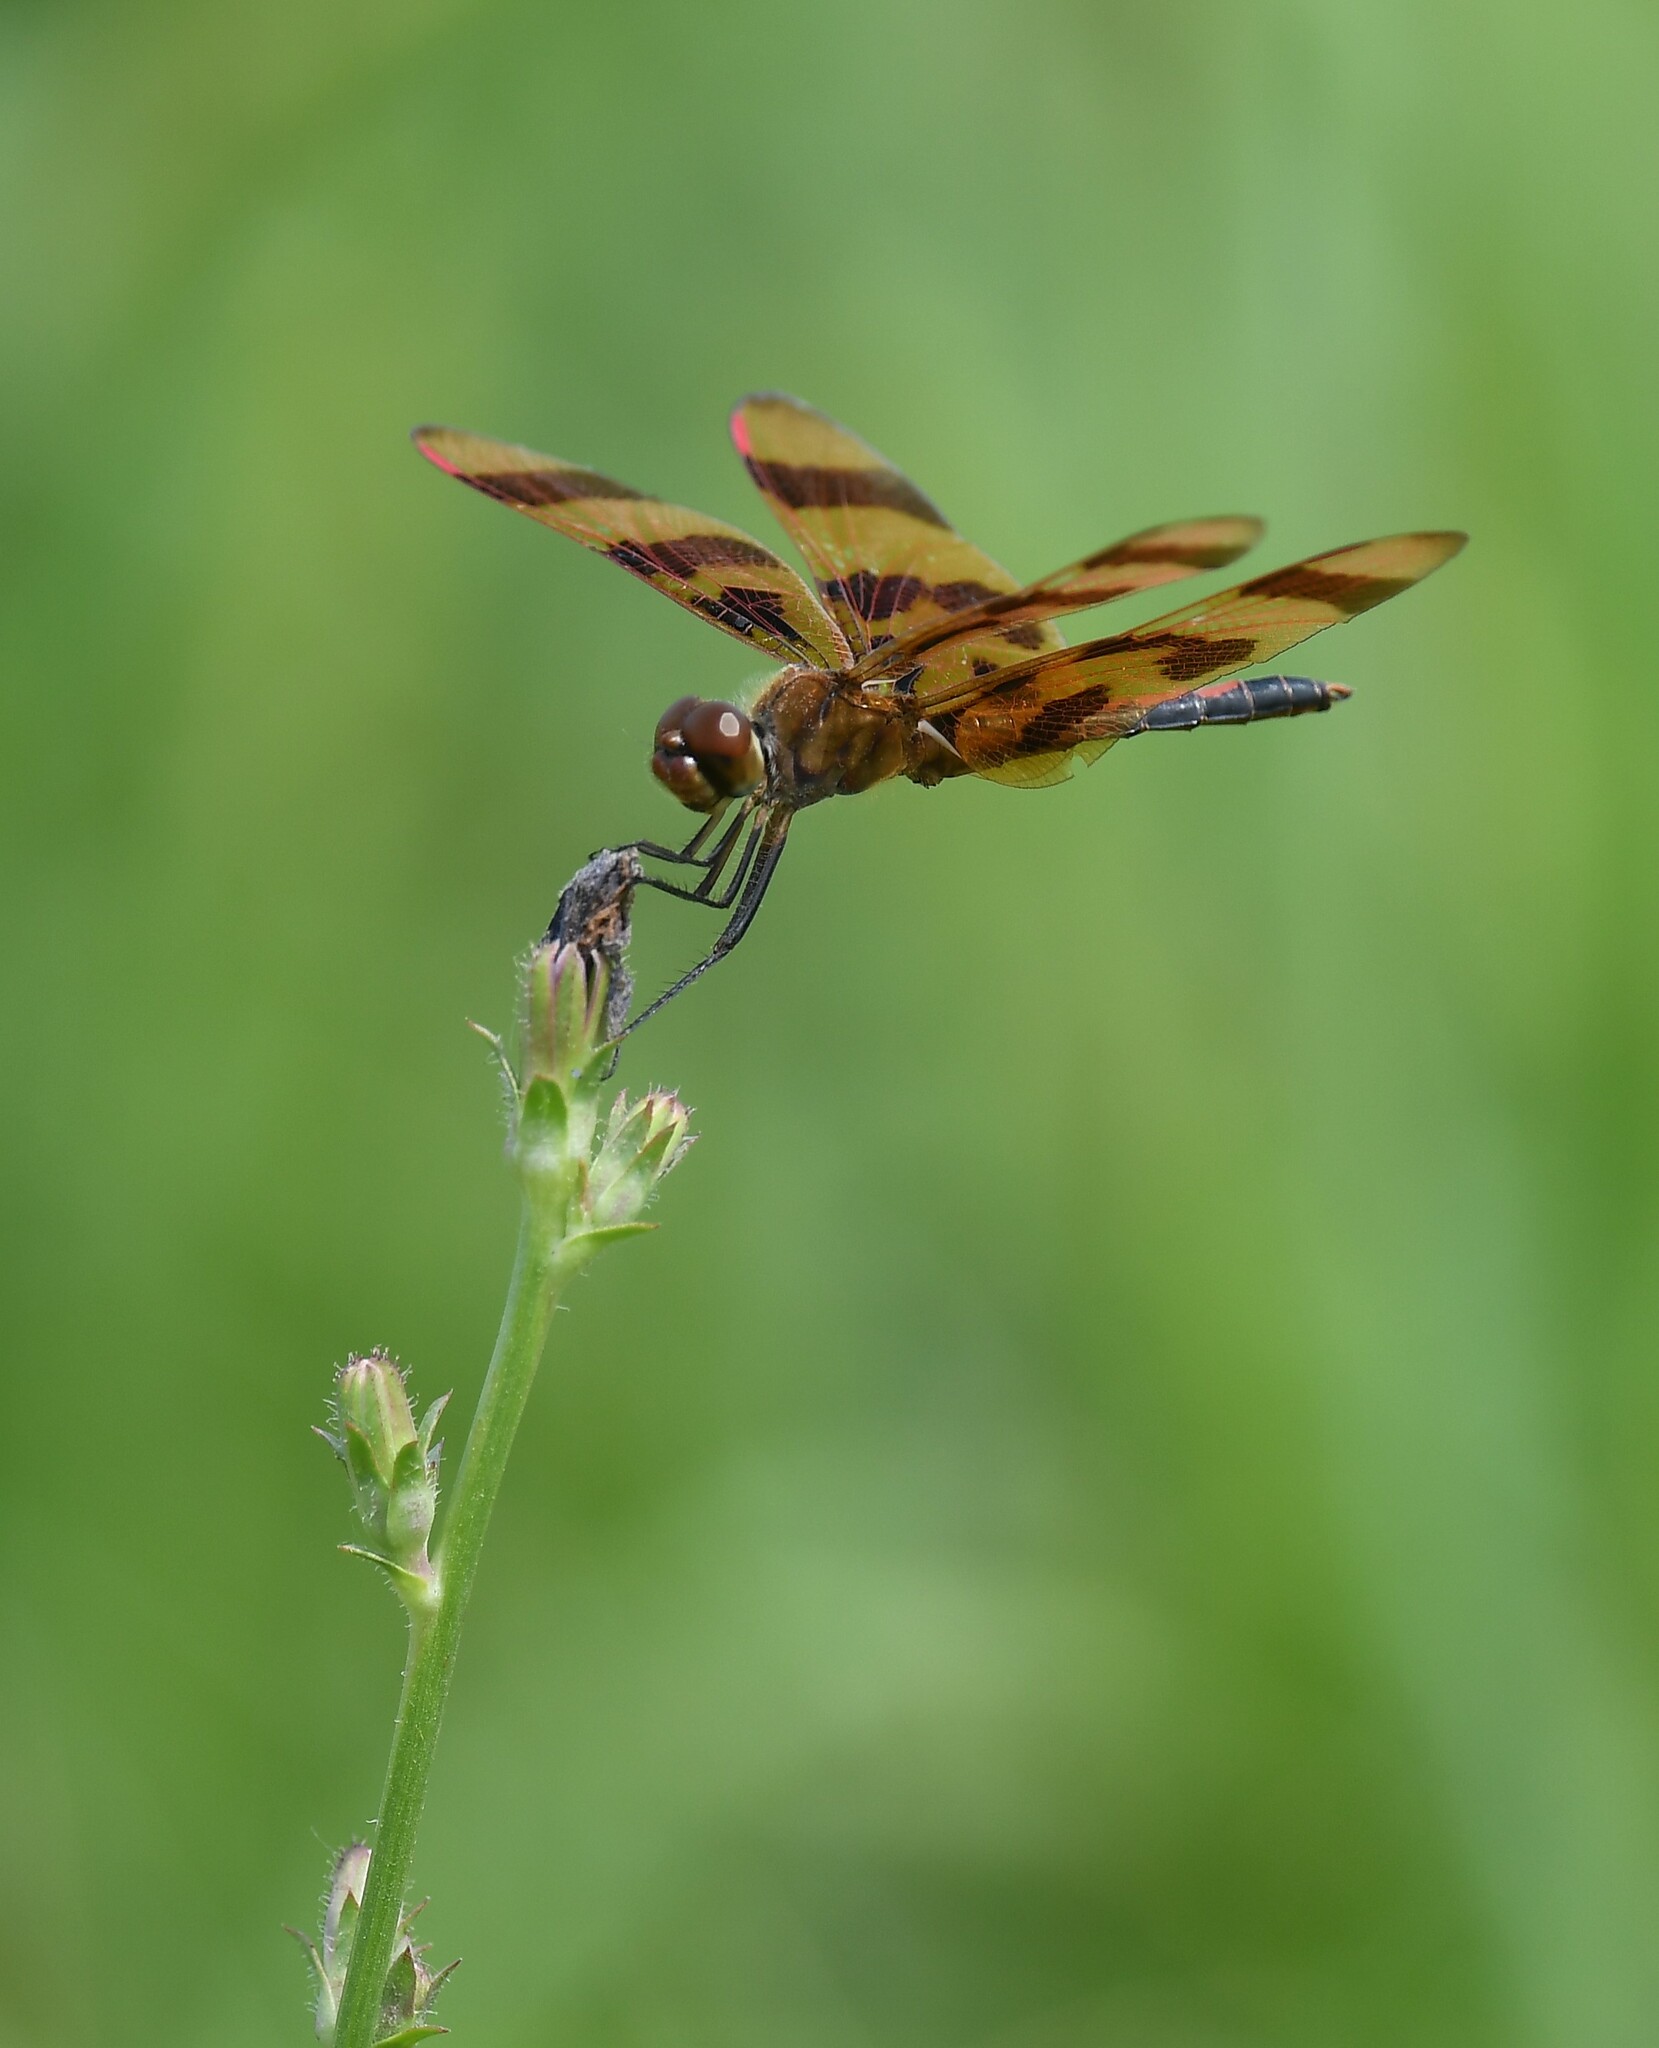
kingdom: Animalia
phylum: Arthropoda
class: Insecta
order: Odonata
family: Libellulidae
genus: Celithemis
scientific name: Celithemis eponina
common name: Halloween pennant
